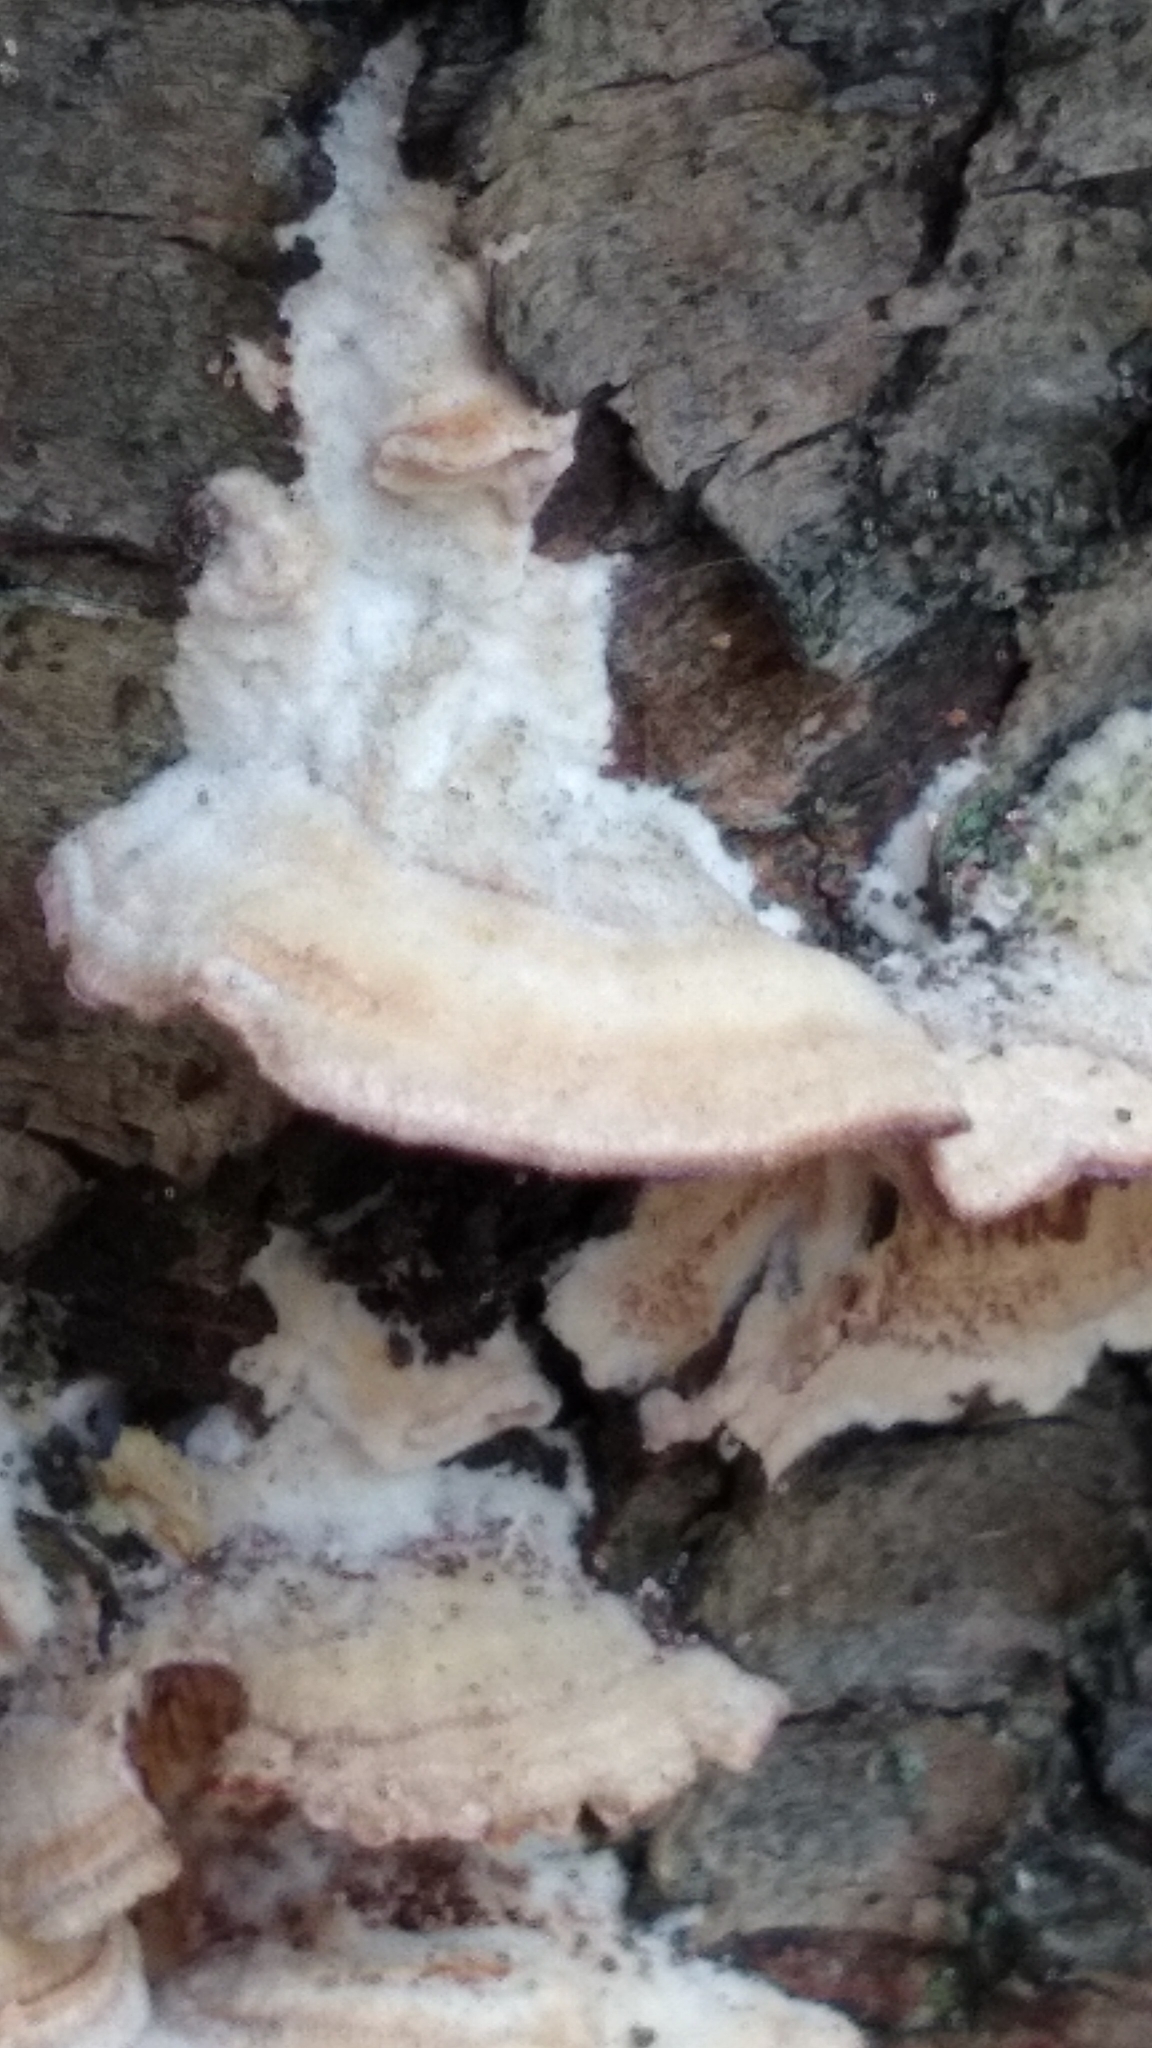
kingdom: Fungi
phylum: Basidiomycota
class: Agaricomycetes
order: Hymenochaetales
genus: Trichaptum
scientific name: Trichaptum biforme
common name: Violet-toothed polypore
